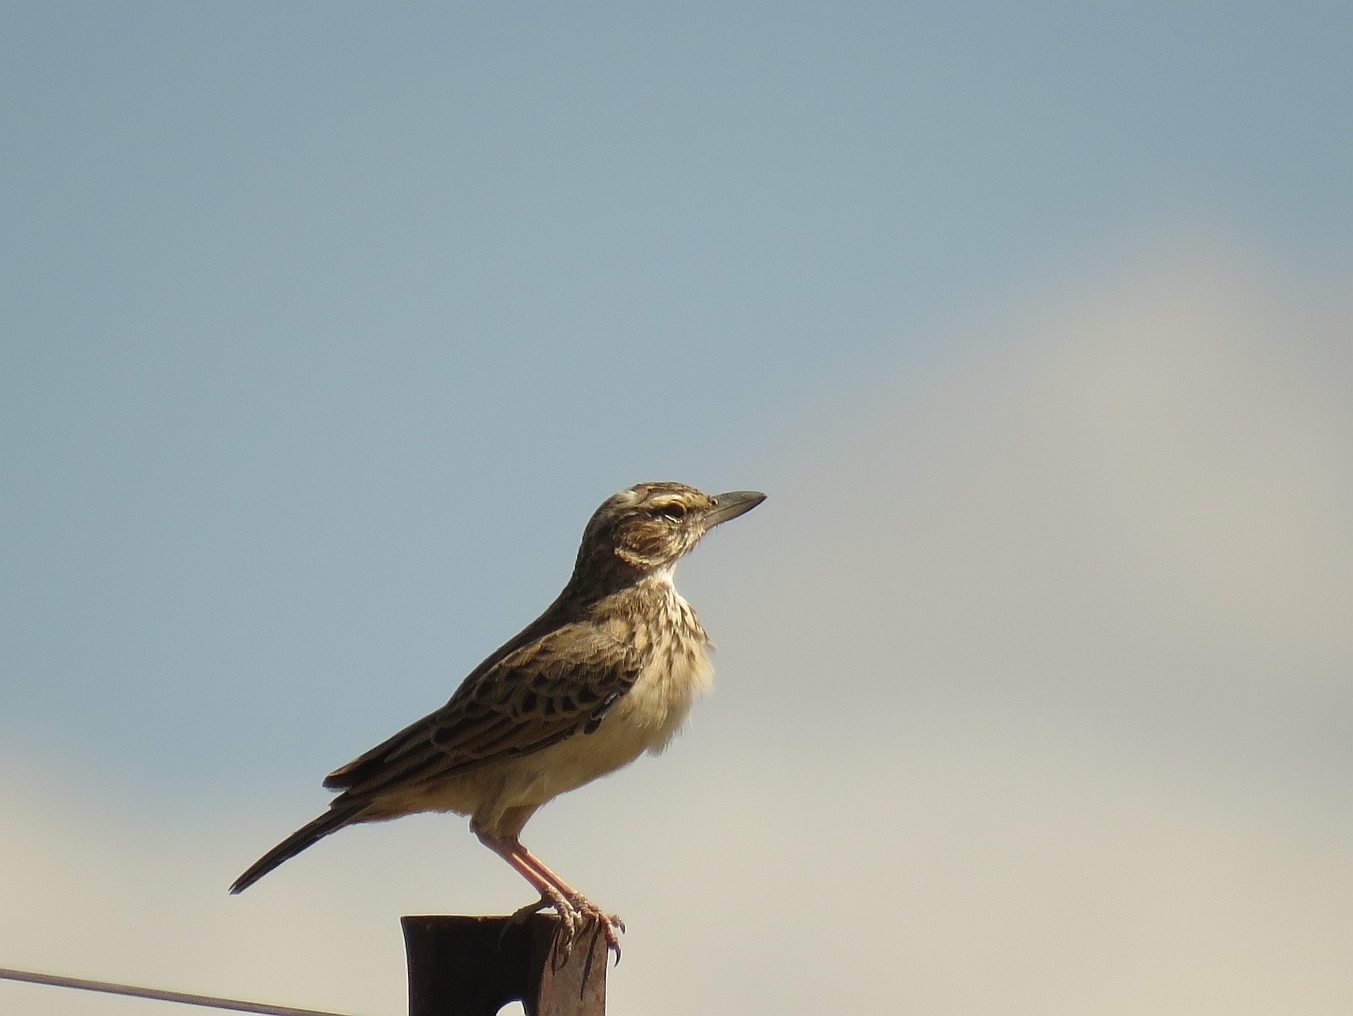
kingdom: Animalia
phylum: Chordata
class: Aves
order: Passeriformes
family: Alaudidae
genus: Calendulauda
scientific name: Calendulauda sabota
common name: Sabota lark
